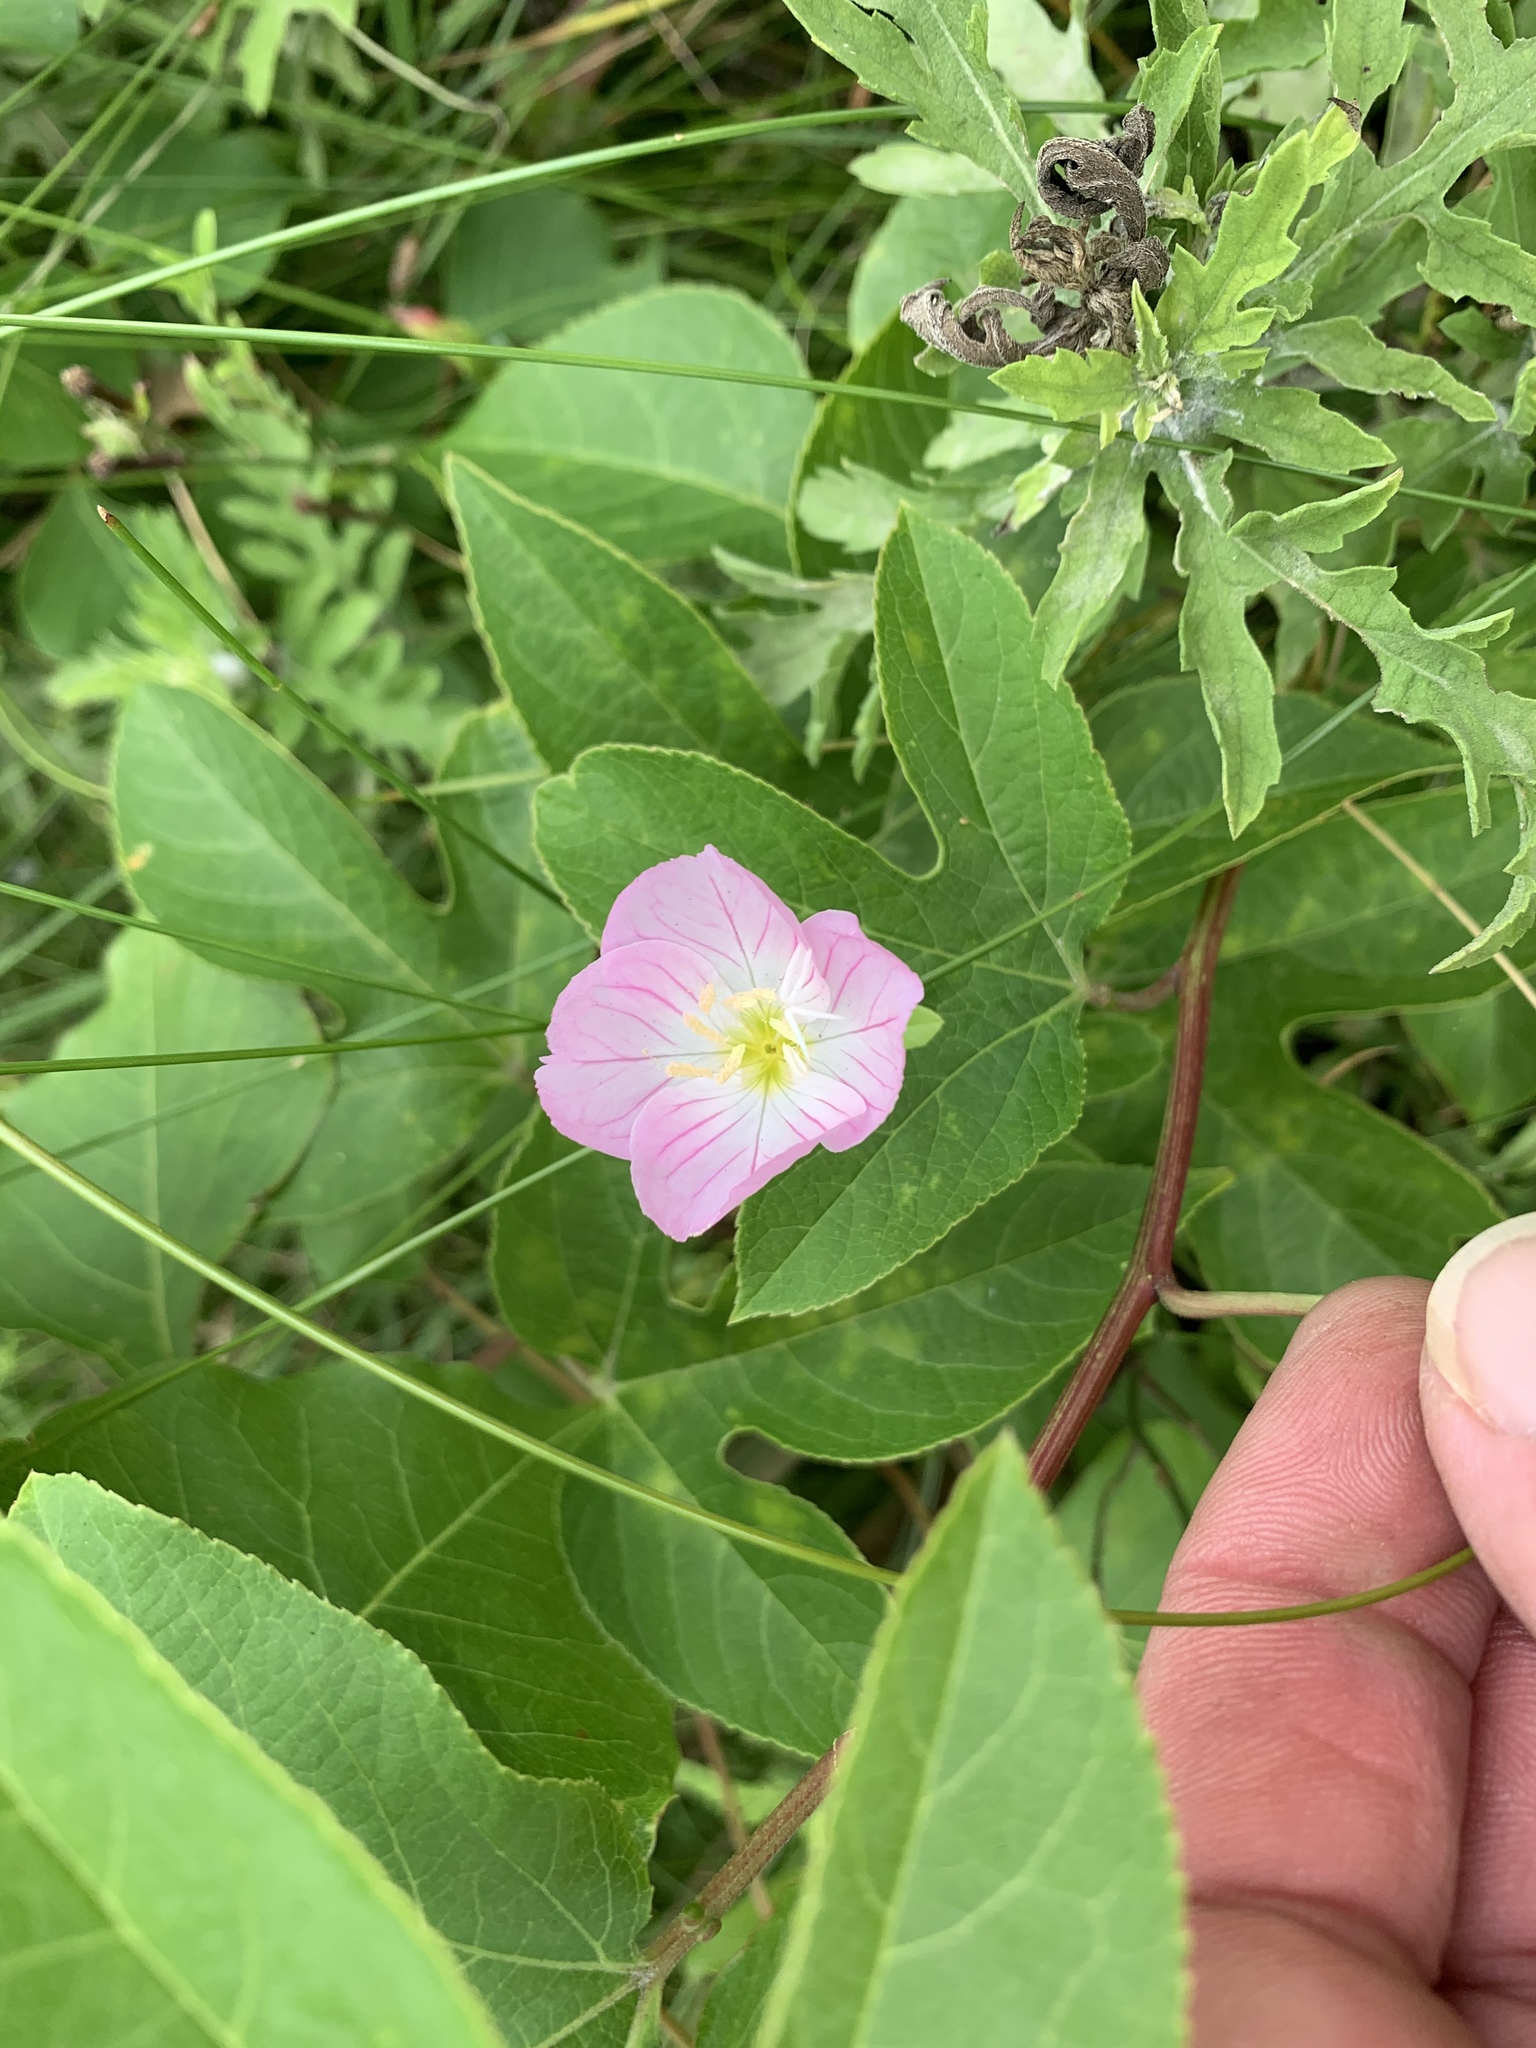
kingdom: Plantae
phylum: Tracheophyta
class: Magnoliopsida
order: Myrtales
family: Onagraceae
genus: Oenothera
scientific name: Oenothera speciosa
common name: White evening-primrose
